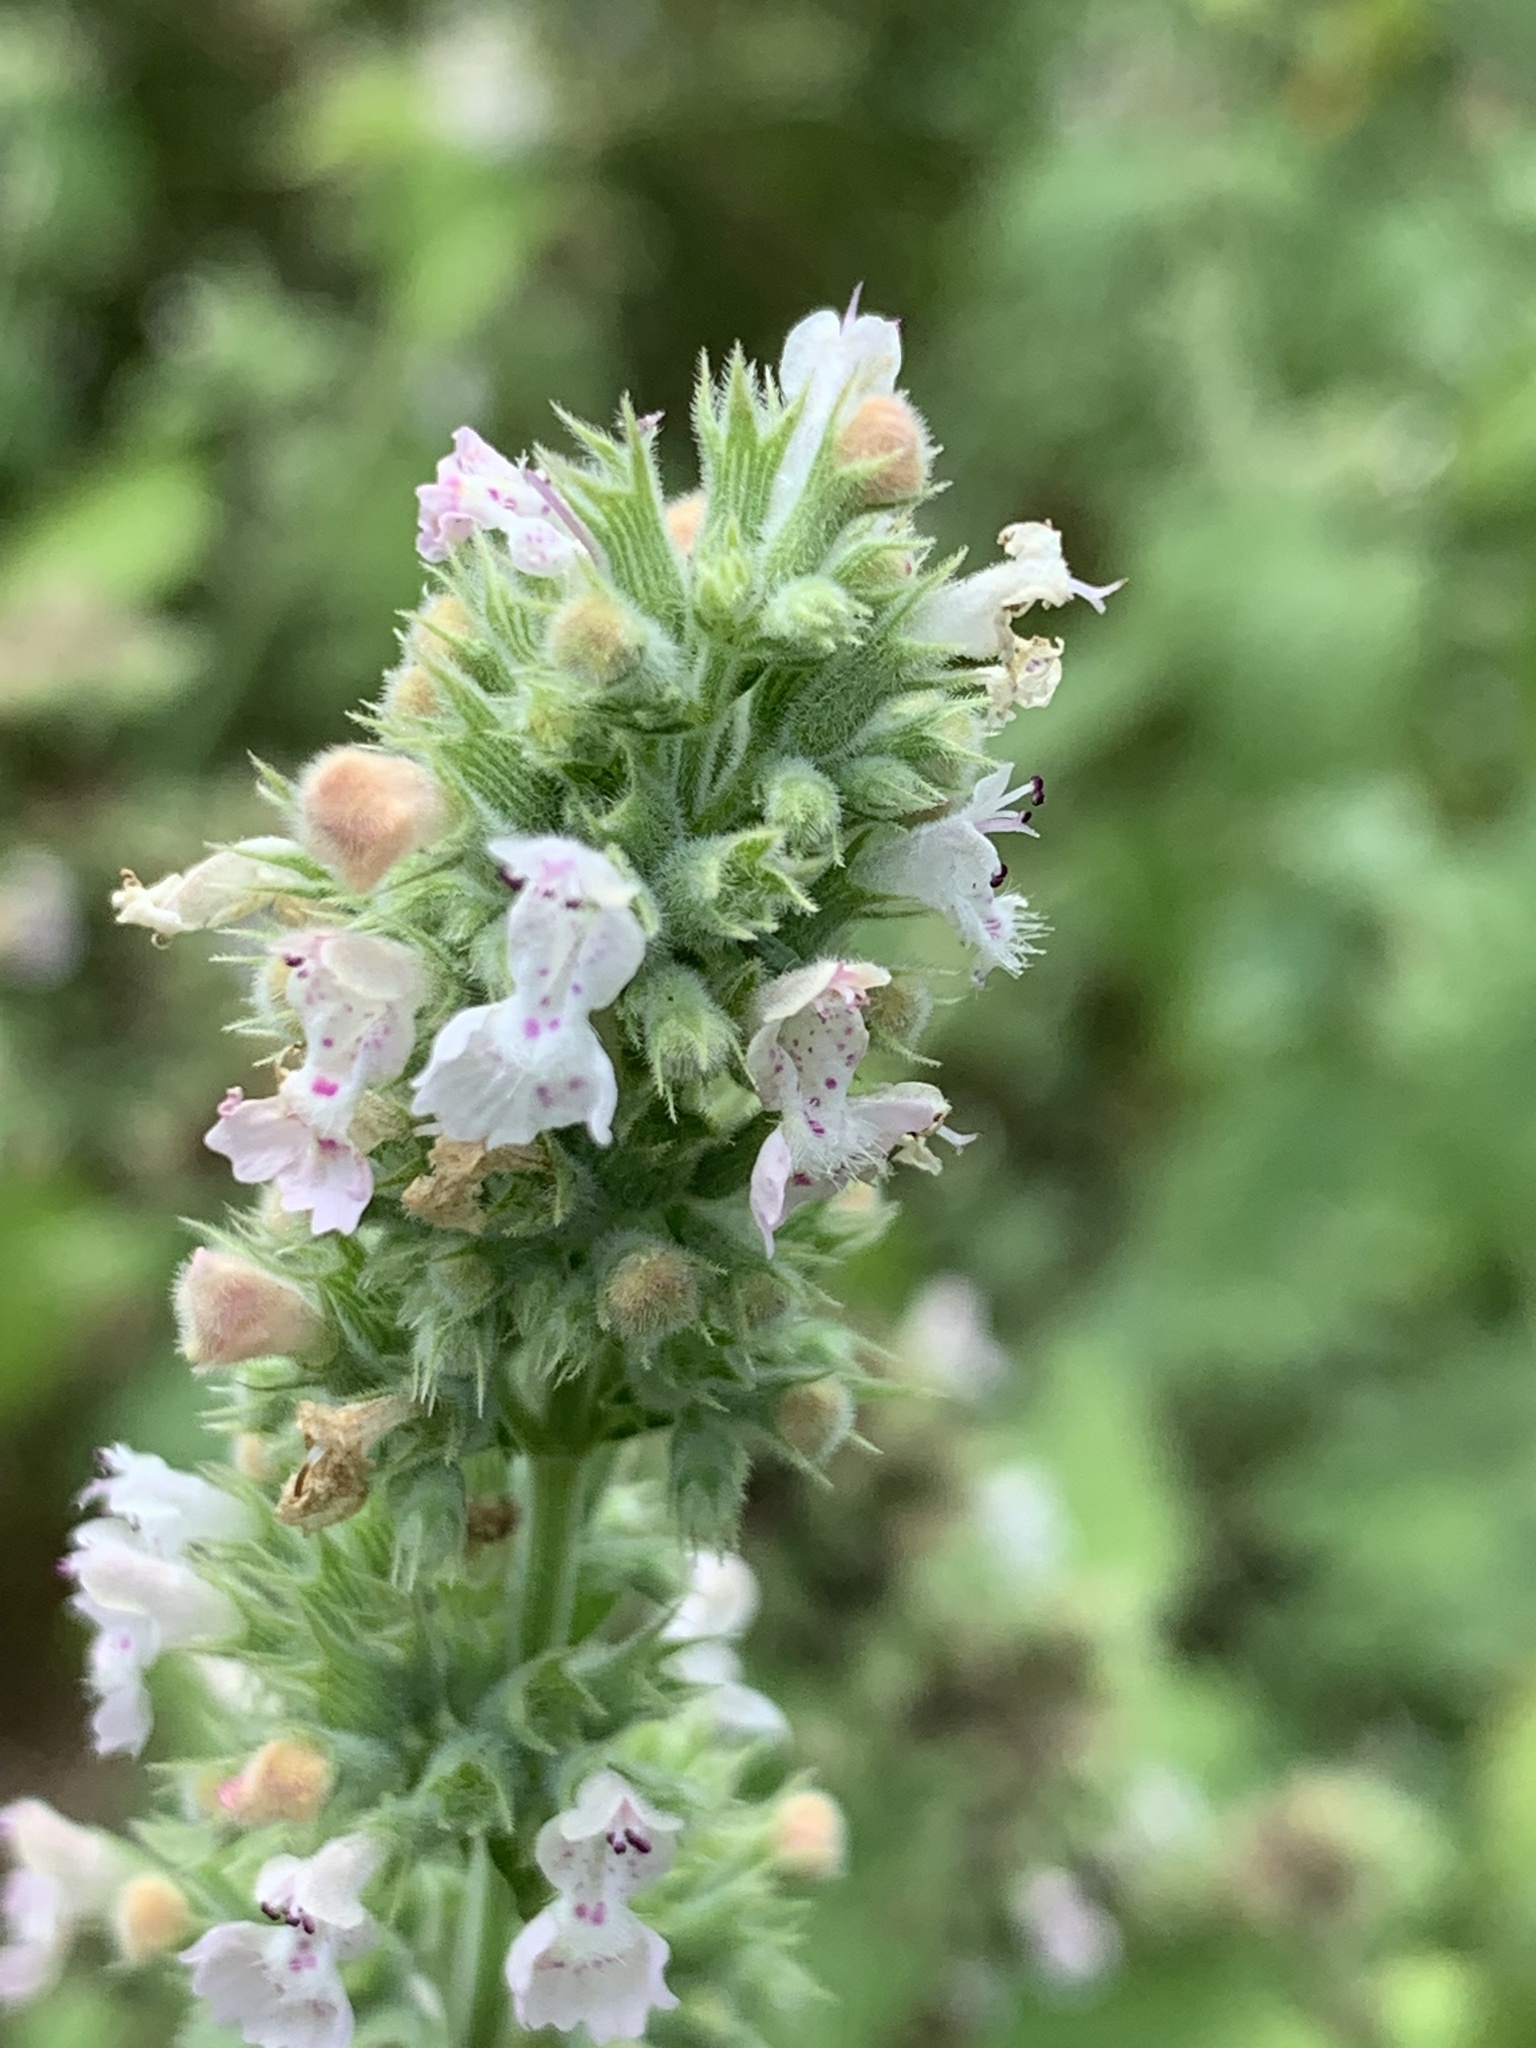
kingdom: Plantae
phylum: Tracheophyta
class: Magnoliopsida
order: Lamiales
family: Lamiaceae
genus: Nepeta
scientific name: Nepeta cataria
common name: Catnip
